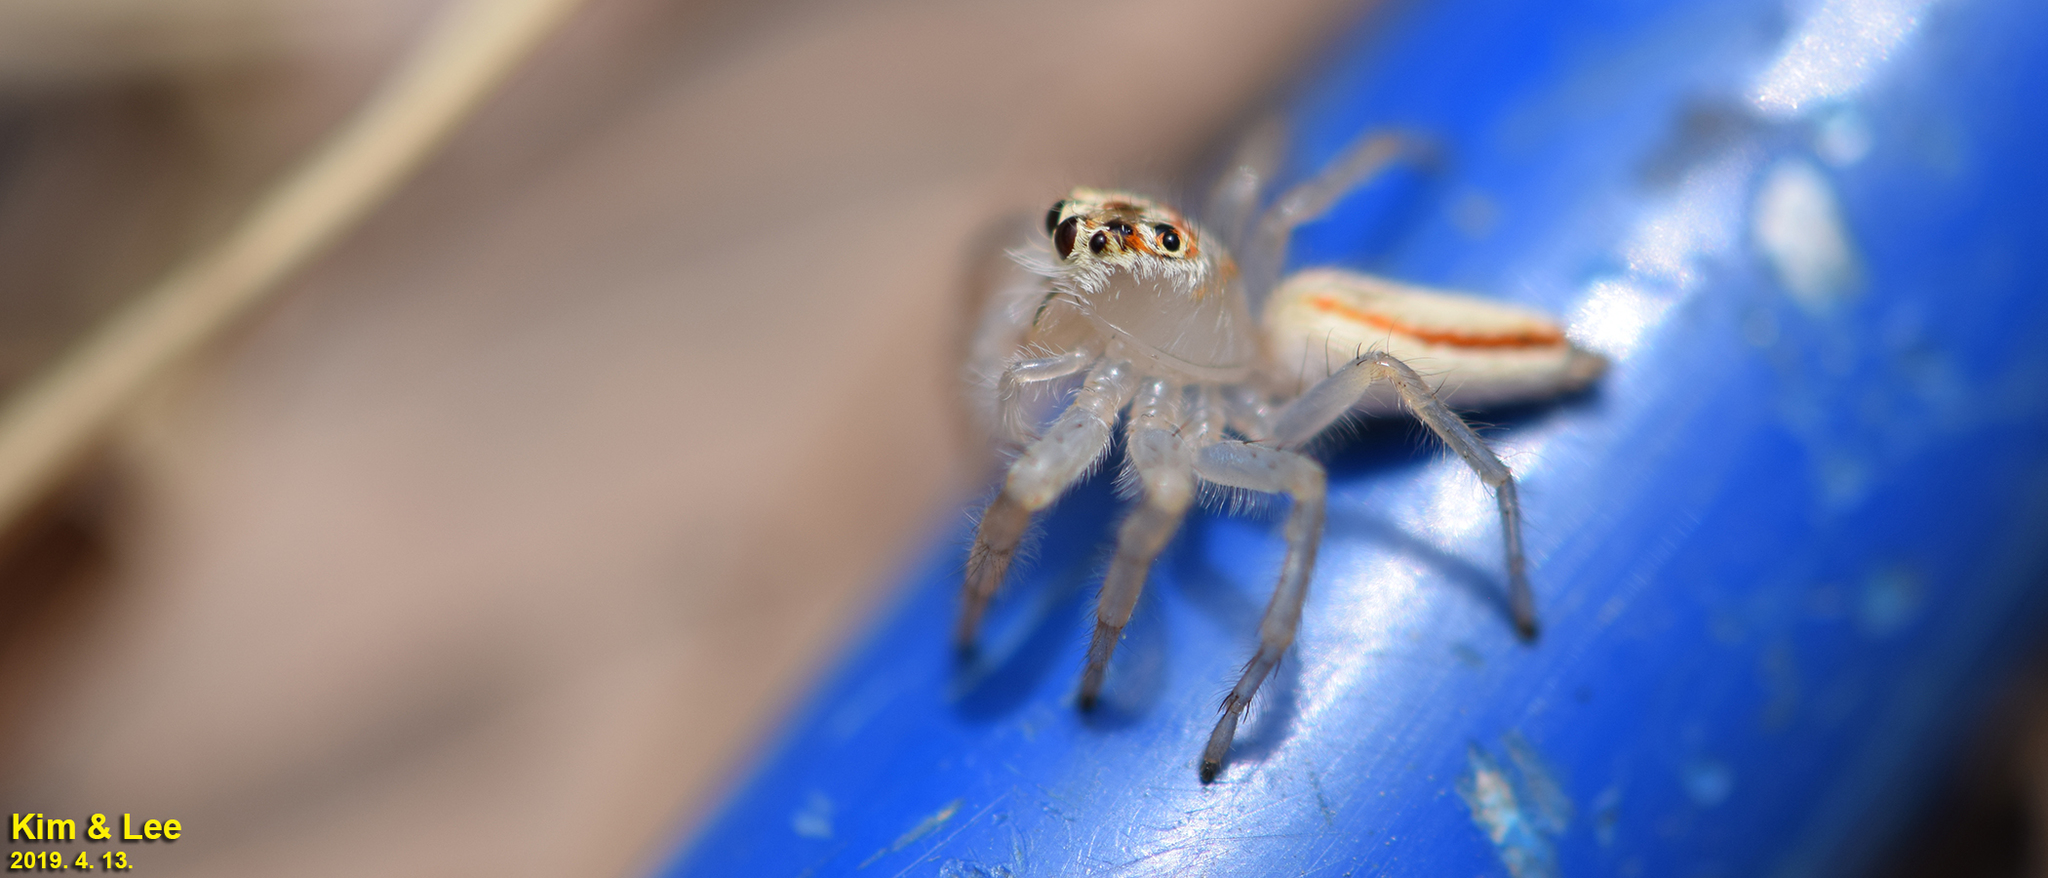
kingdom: Animalia
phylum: Arthropoda
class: Arachnida
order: Araneae
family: Salticidae
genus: Telamonia
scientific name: Telamonia vlijmi
